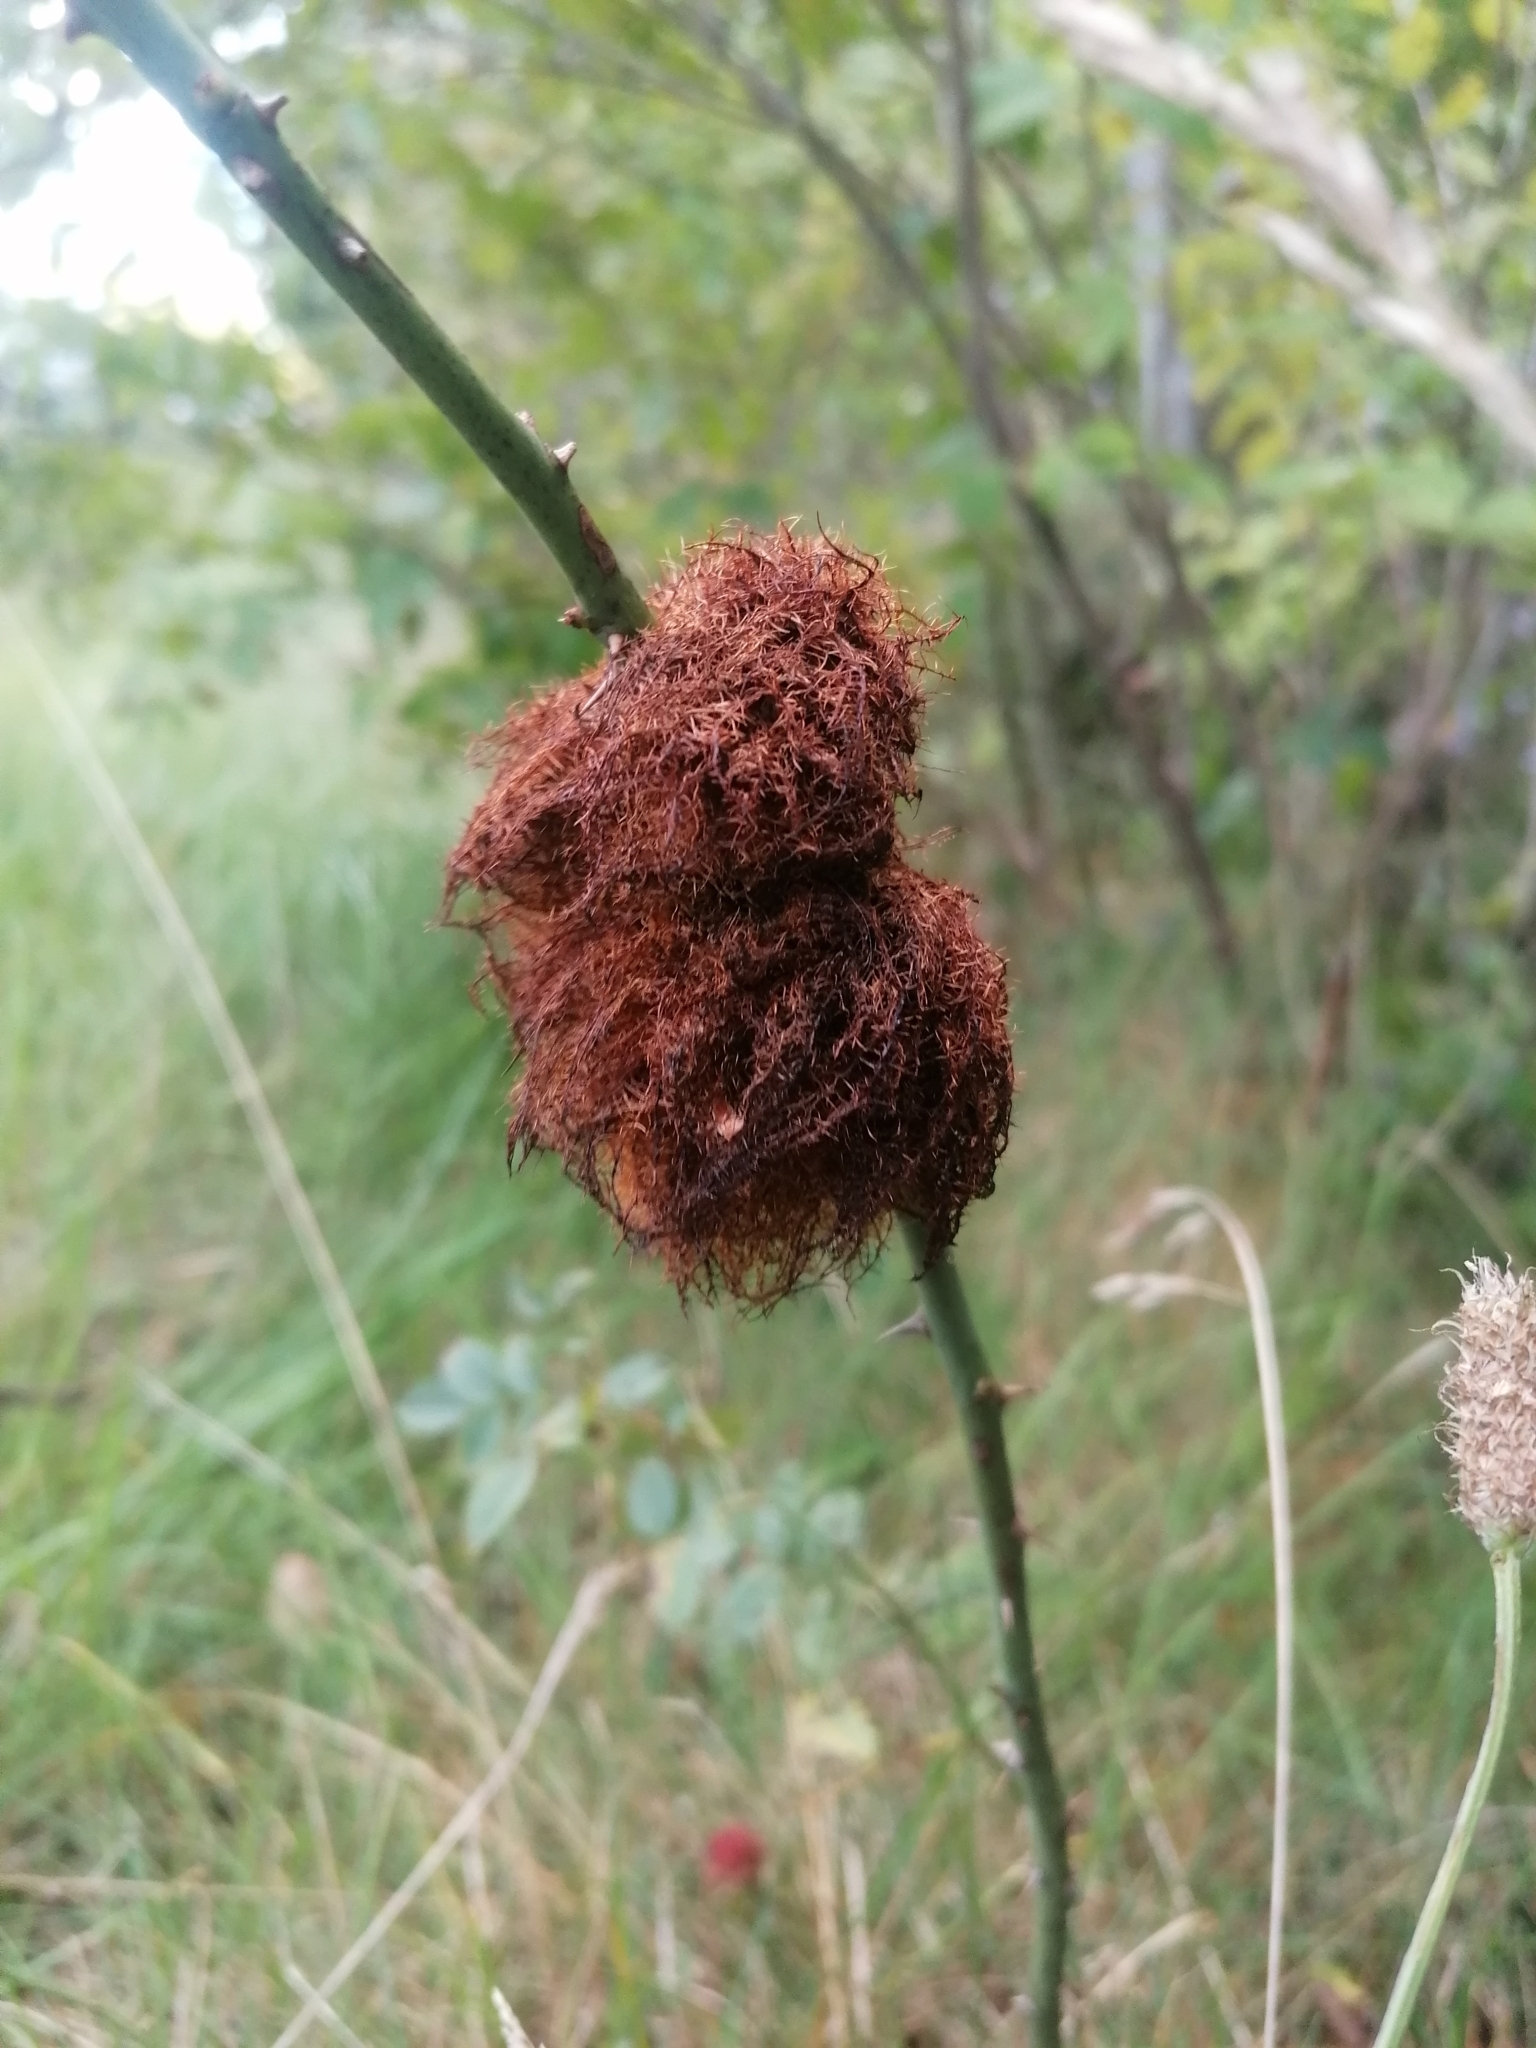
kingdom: Animalia
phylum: Arthropoda
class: Insecta
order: Hymenoptera
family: Cynipidae
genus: Diplolepis
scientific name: Diplolepis rosae
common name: Bedeguar gall
